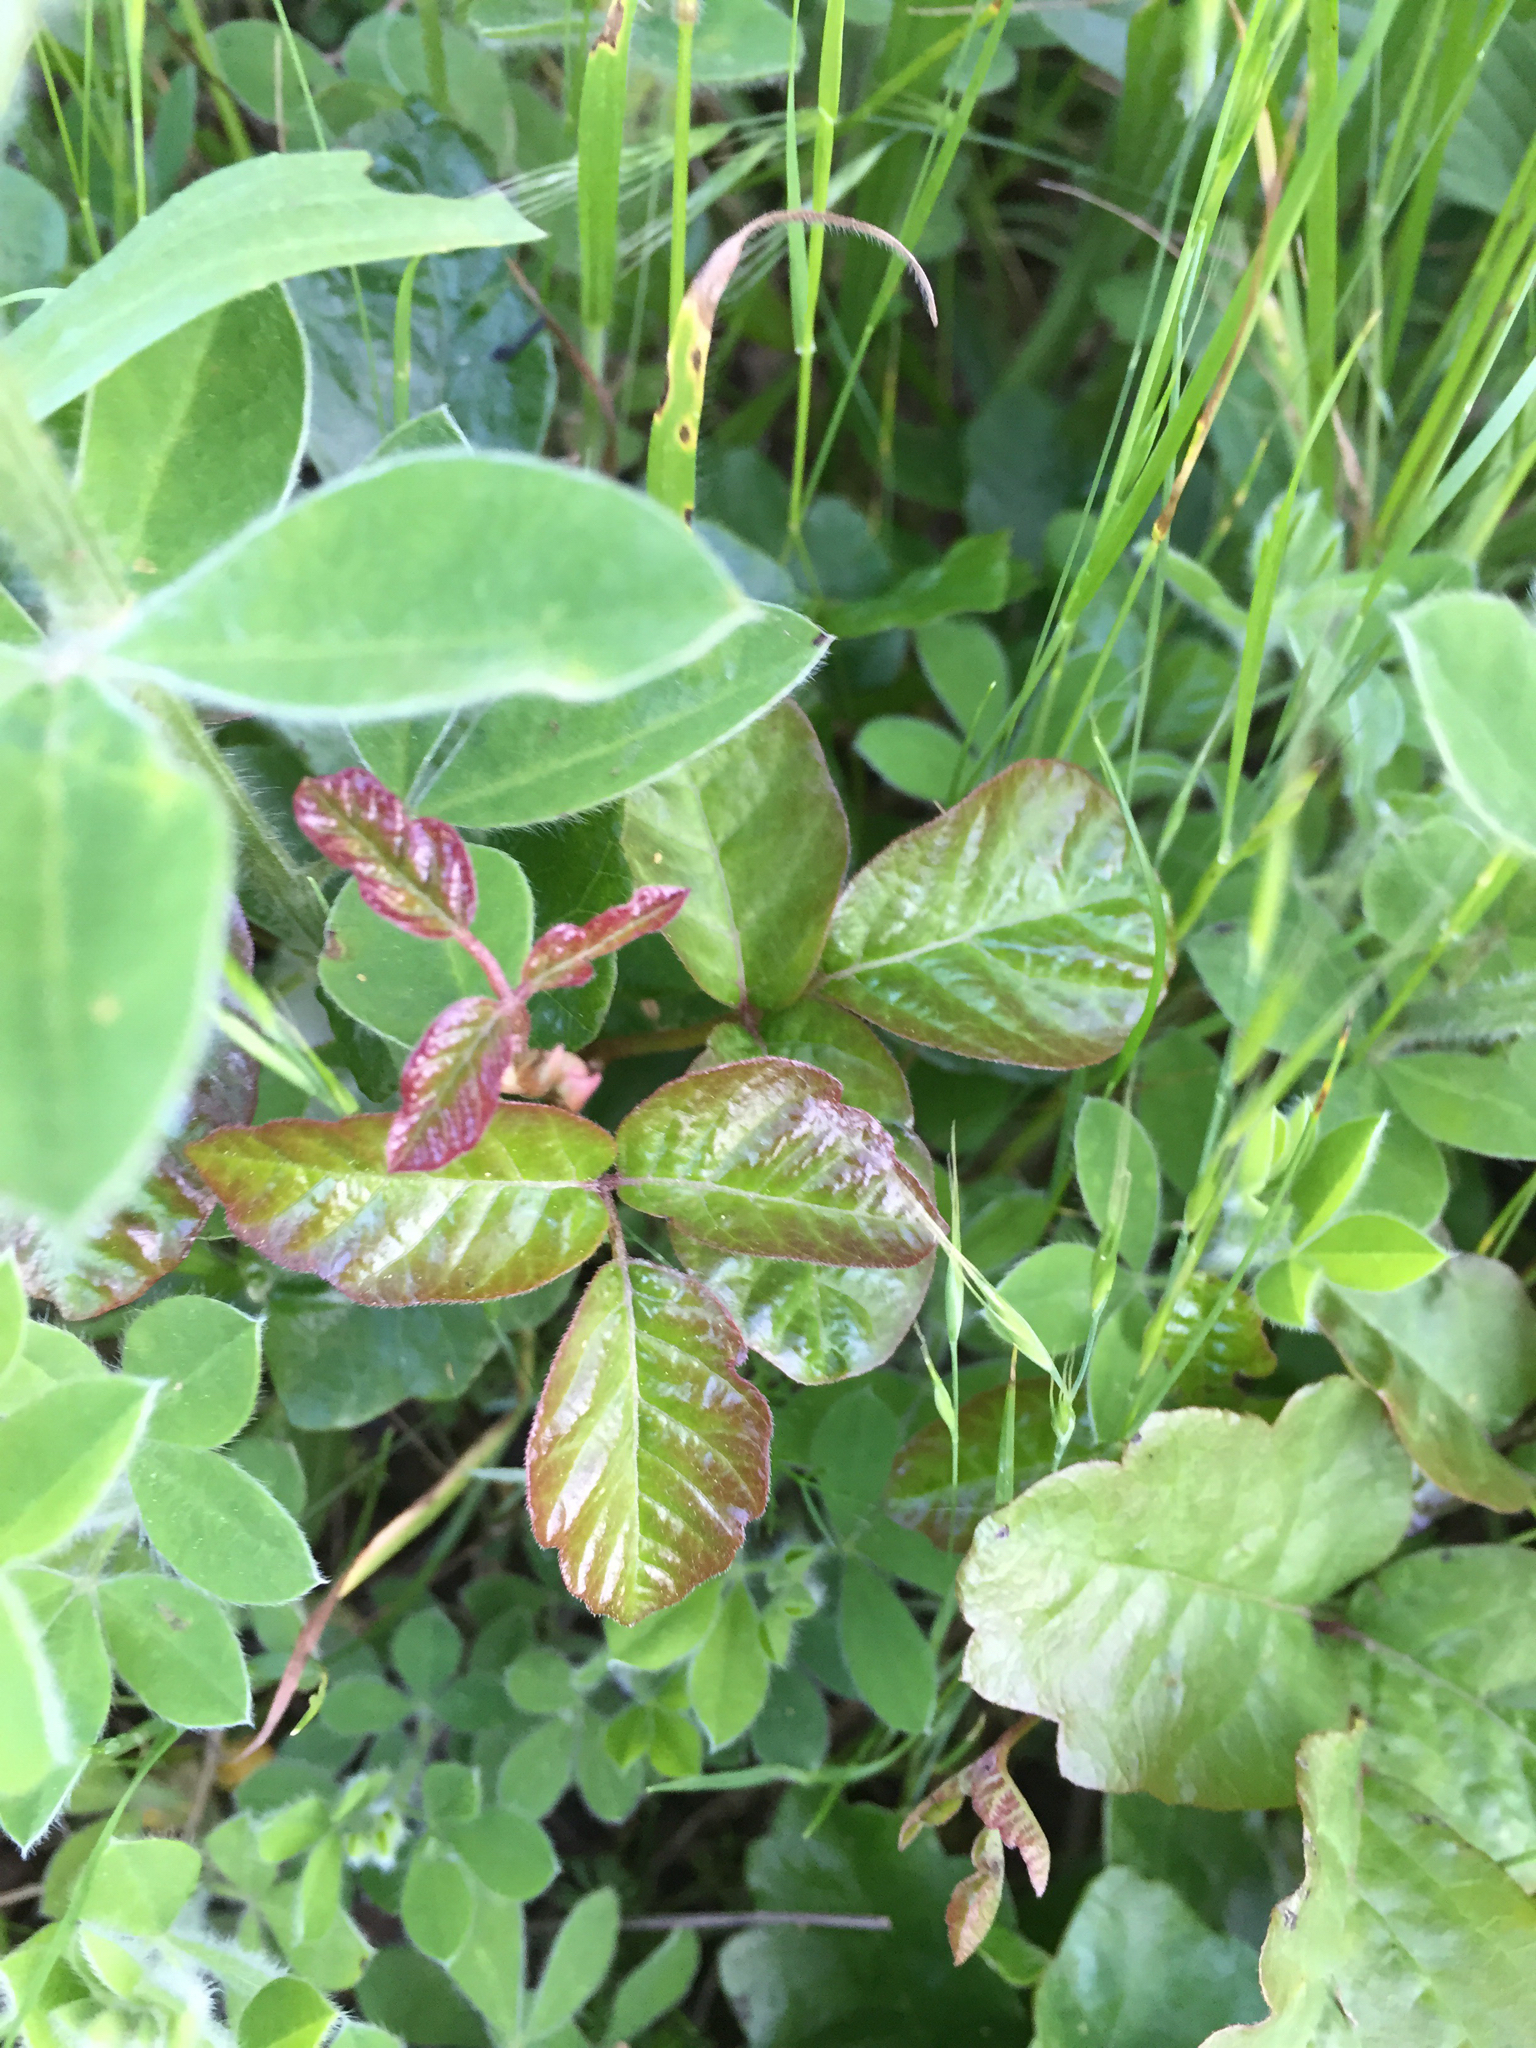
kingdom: Plantae
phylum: Tracheophyta
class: Magnoliopsida
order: Sapindales
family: Anacardiaceae
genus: Toxicodendron
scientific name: Toxicodendron diversilobum
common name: Pacific poison-oak
